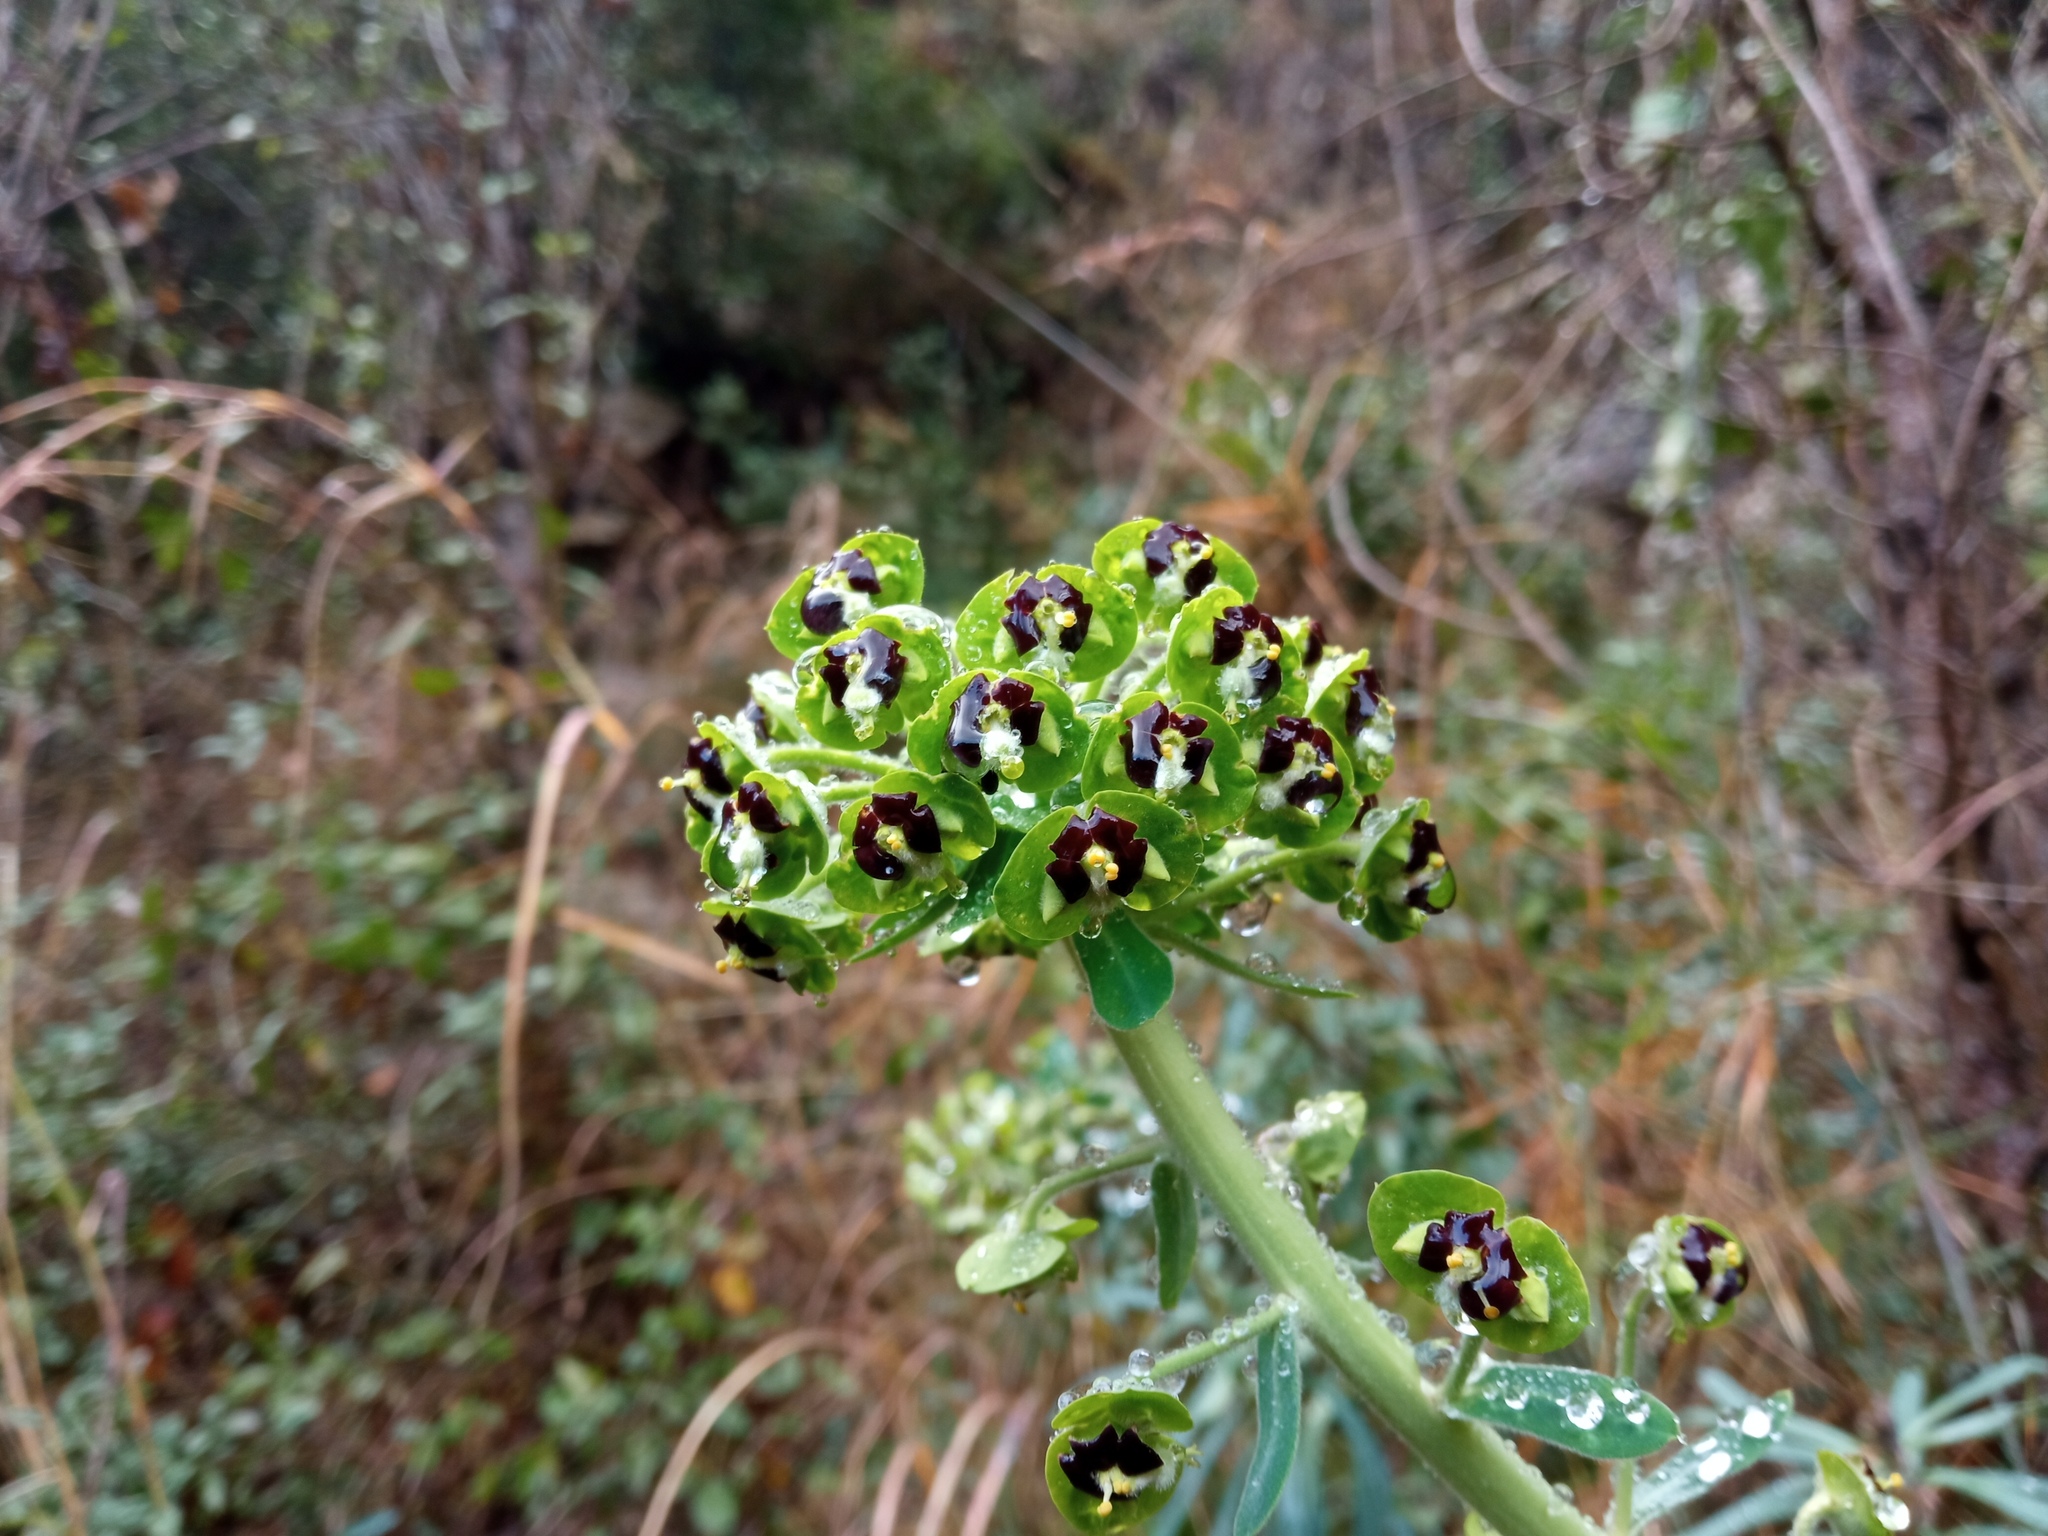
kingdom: Plantae
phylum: Tracheophyta
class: Magnoliopsida
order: Malpighiales
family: Euphorbiaceae
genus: Euphorbia
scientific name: Euphorbia characias
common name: Mediterranean spurge
